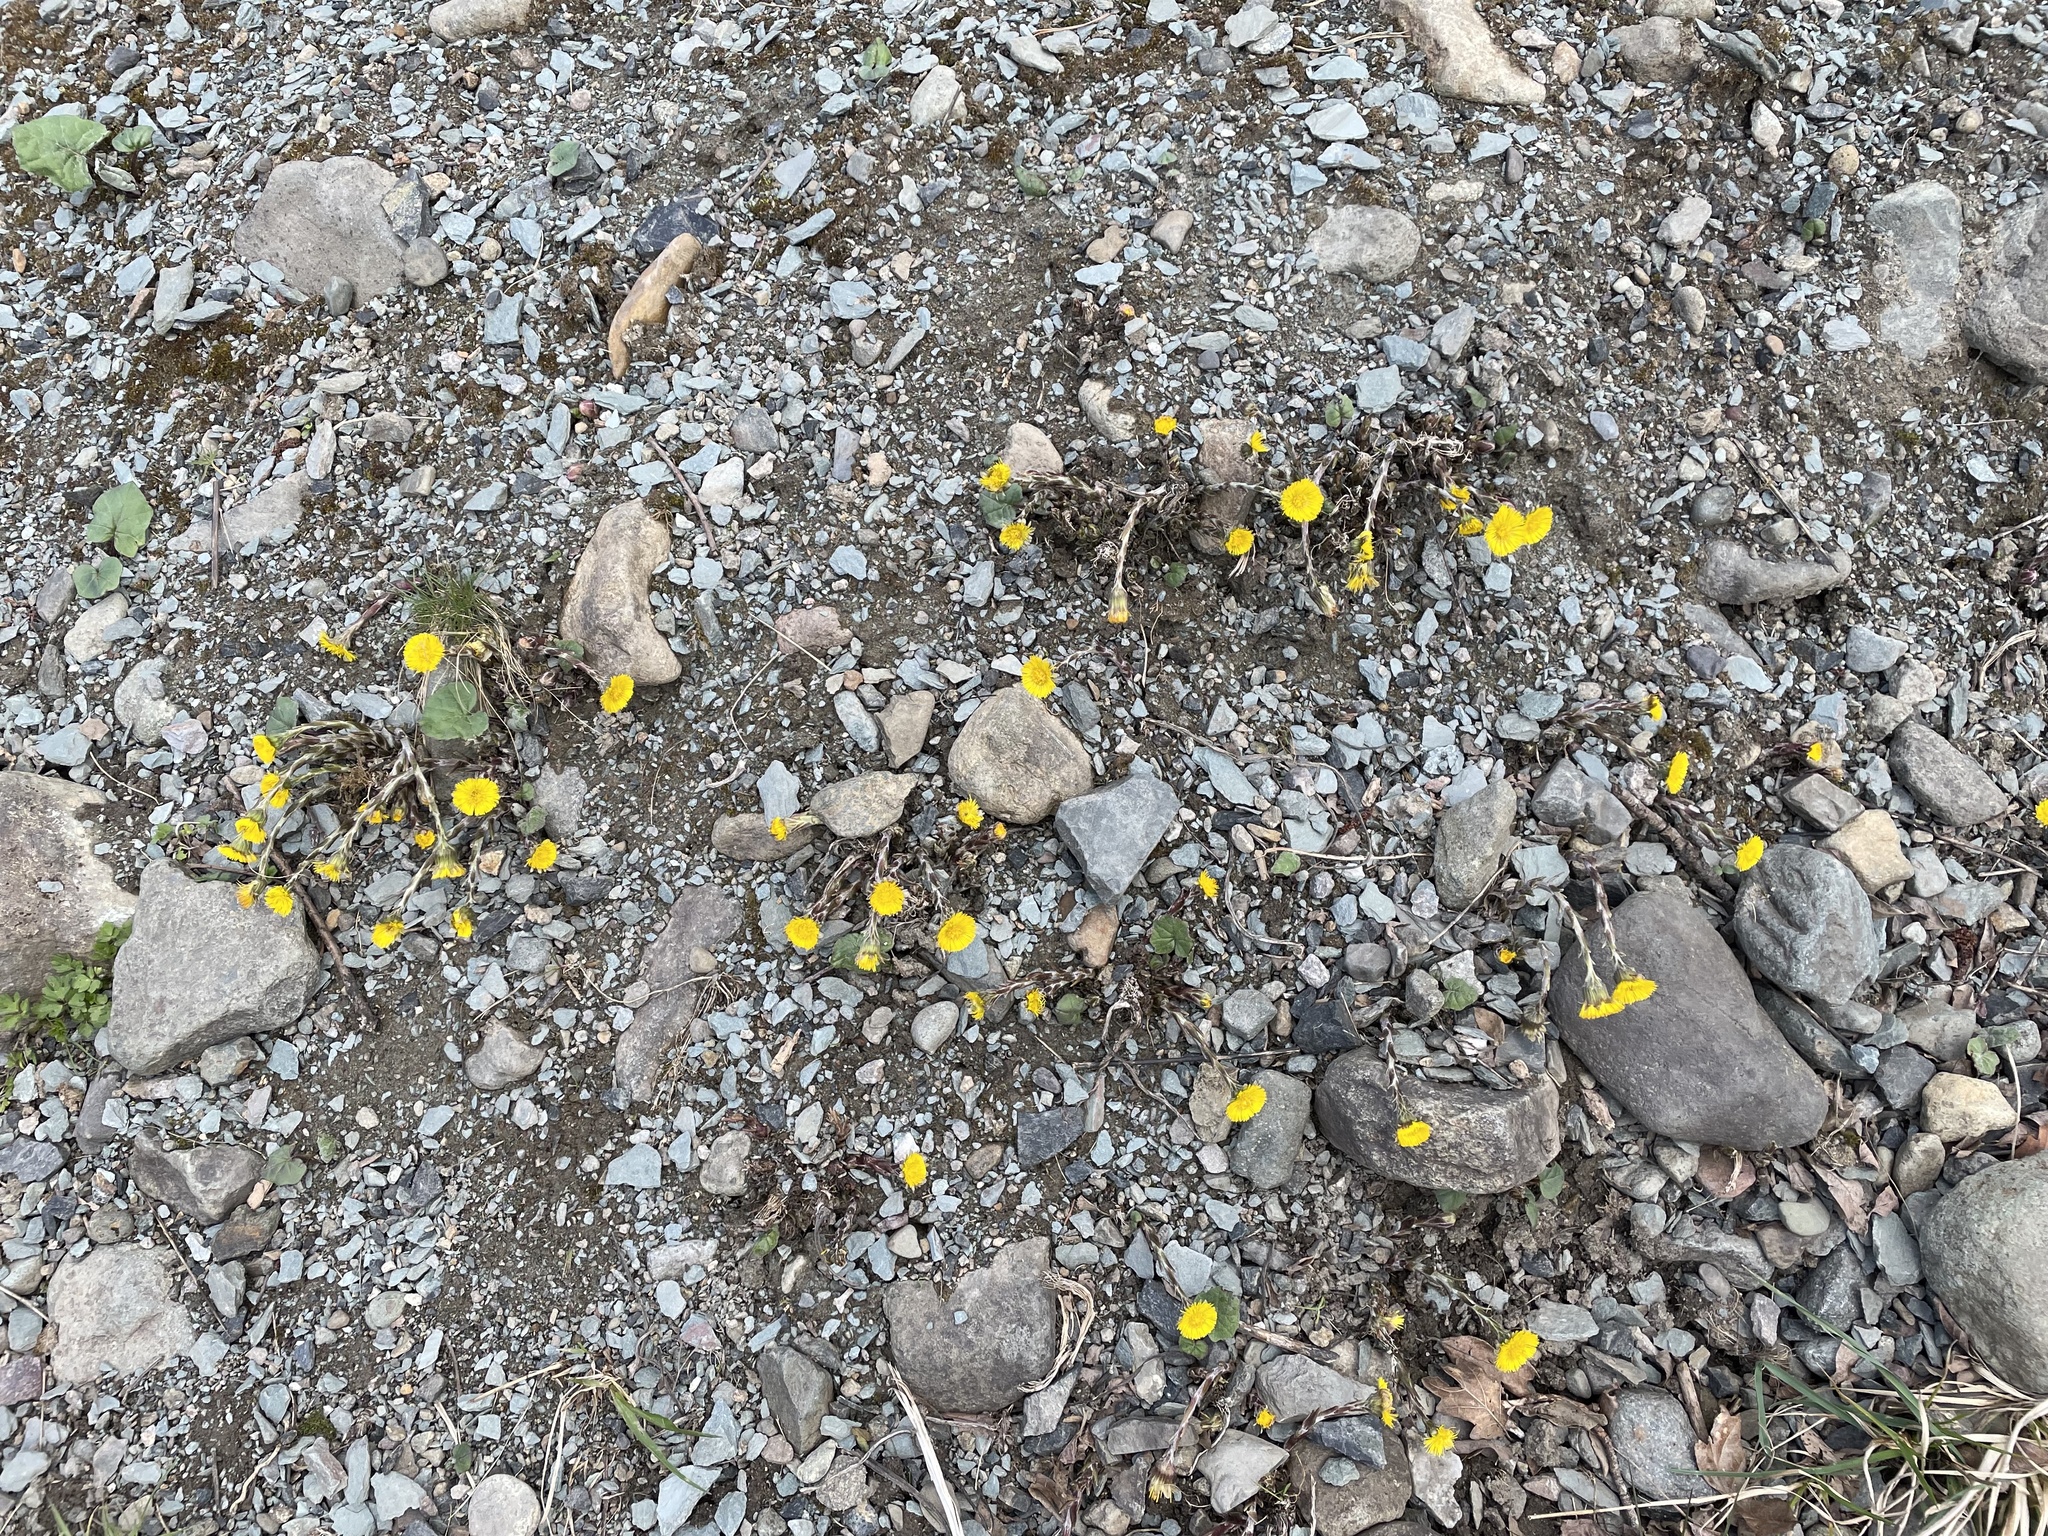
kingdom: Plantae
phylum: Tracheophyta
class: Magnoliopsida
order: Asterales
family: Asteraceae
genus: Tussilago
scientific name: Tussilago farfara
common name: Coltsfoot
